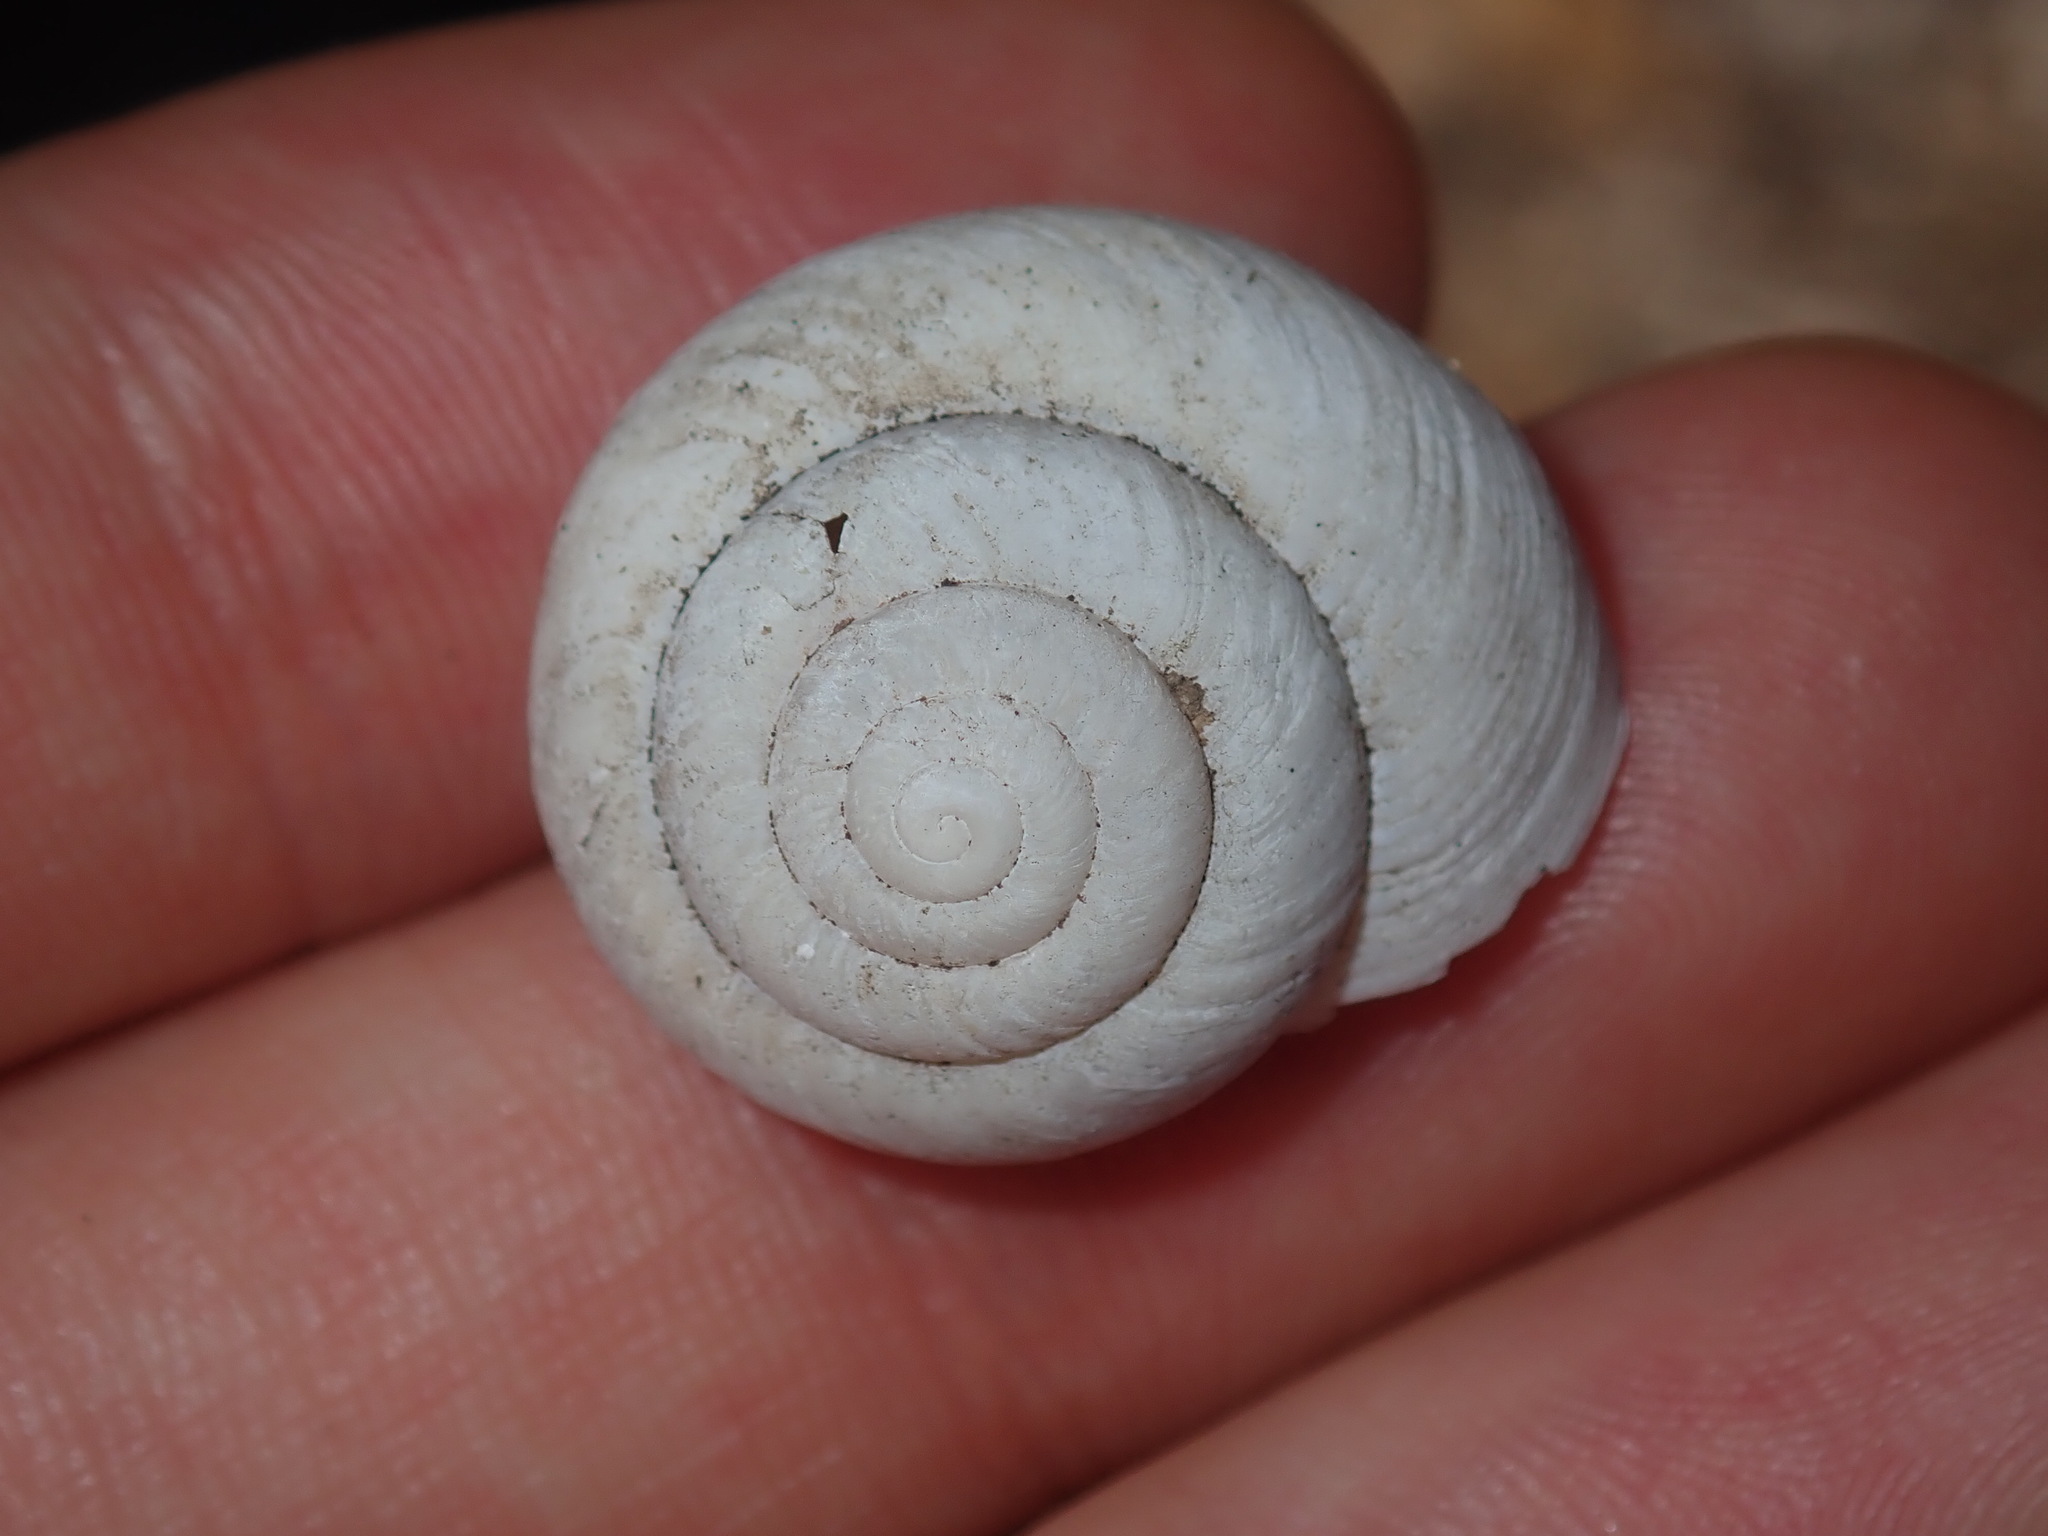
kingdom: Animalia
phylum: Mollusca
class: Gastropoda
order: Stylommatophora
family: Camaenidae
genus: Sauroconcha
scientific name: Sauroconcha sheai
